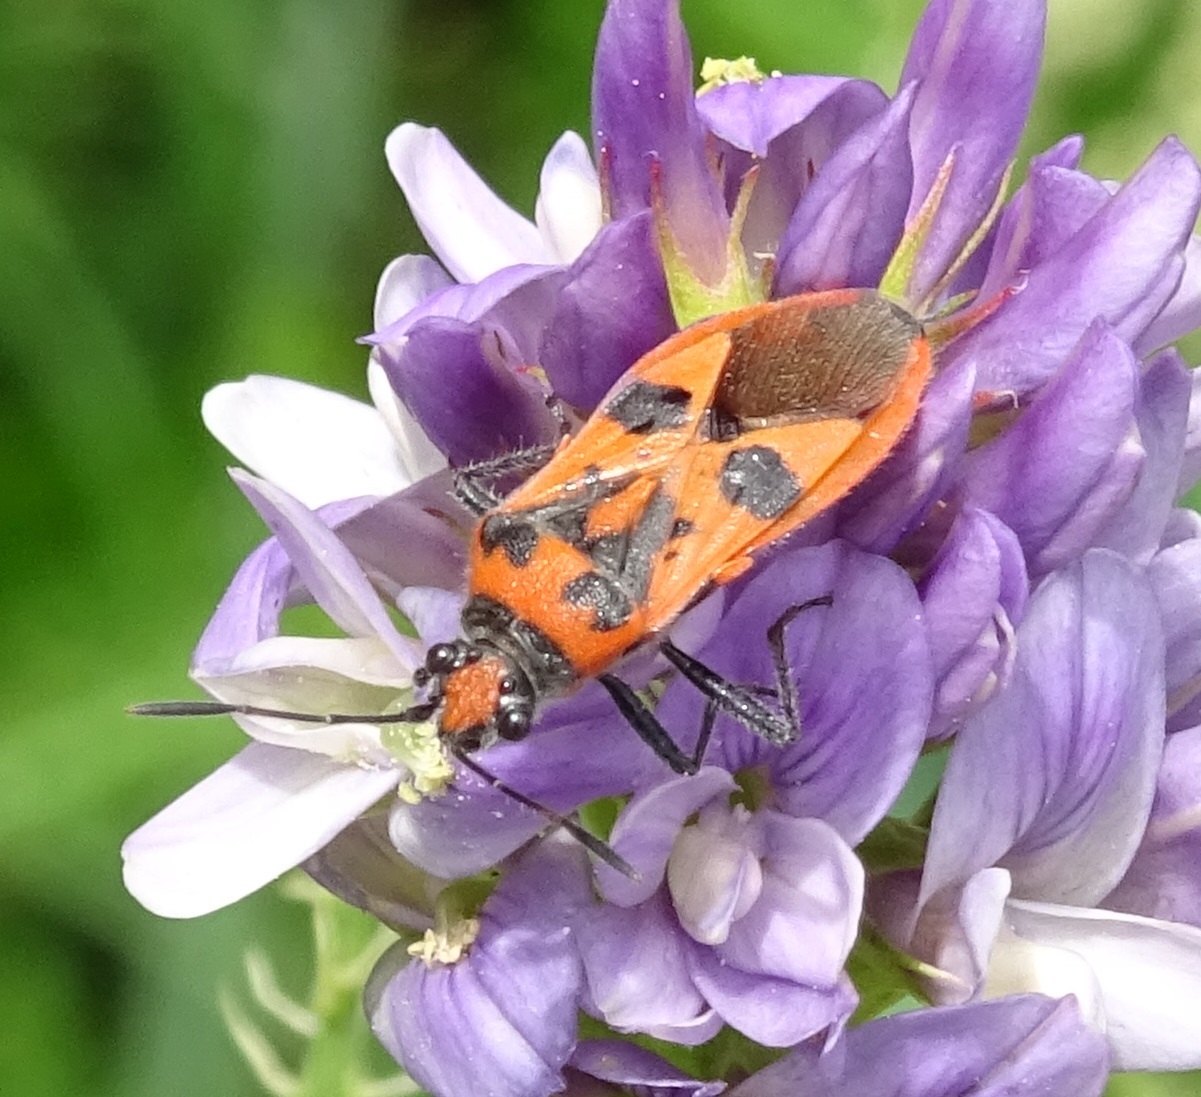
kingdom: Animalia
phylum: Arthropoda
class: Insecta
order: Hemiptera
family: Rhopalidae
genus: Corizus
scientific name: Corizus hyoscyami
